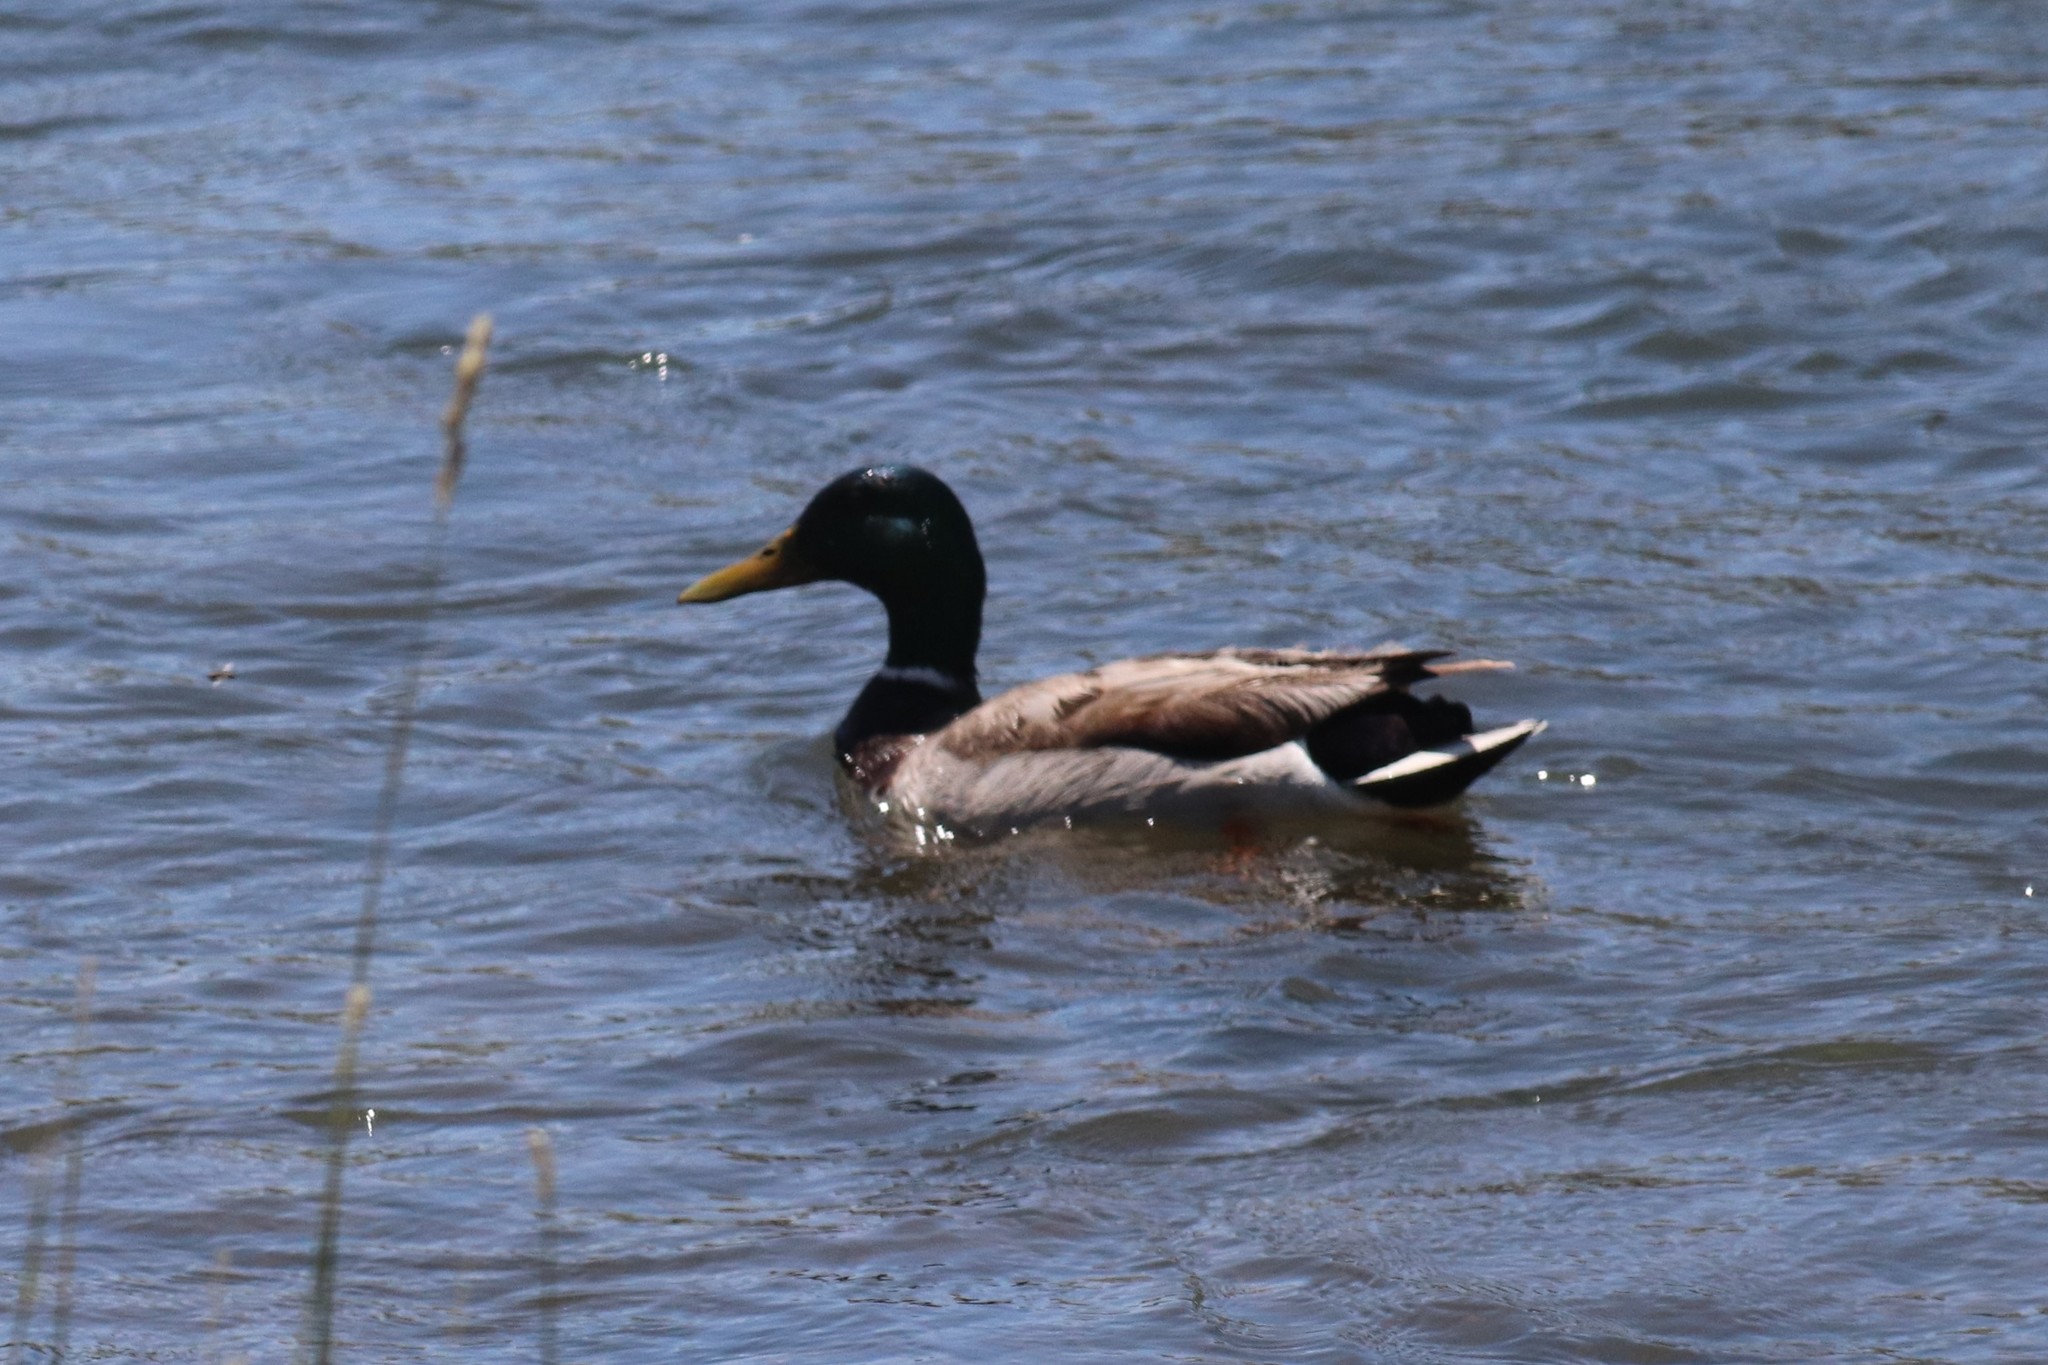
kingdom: Animalia
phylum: Chordata
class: Aves
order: Anseriformes
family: Anatidae
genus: Anas
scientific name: Anas platyrhynchos
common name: Mallard
